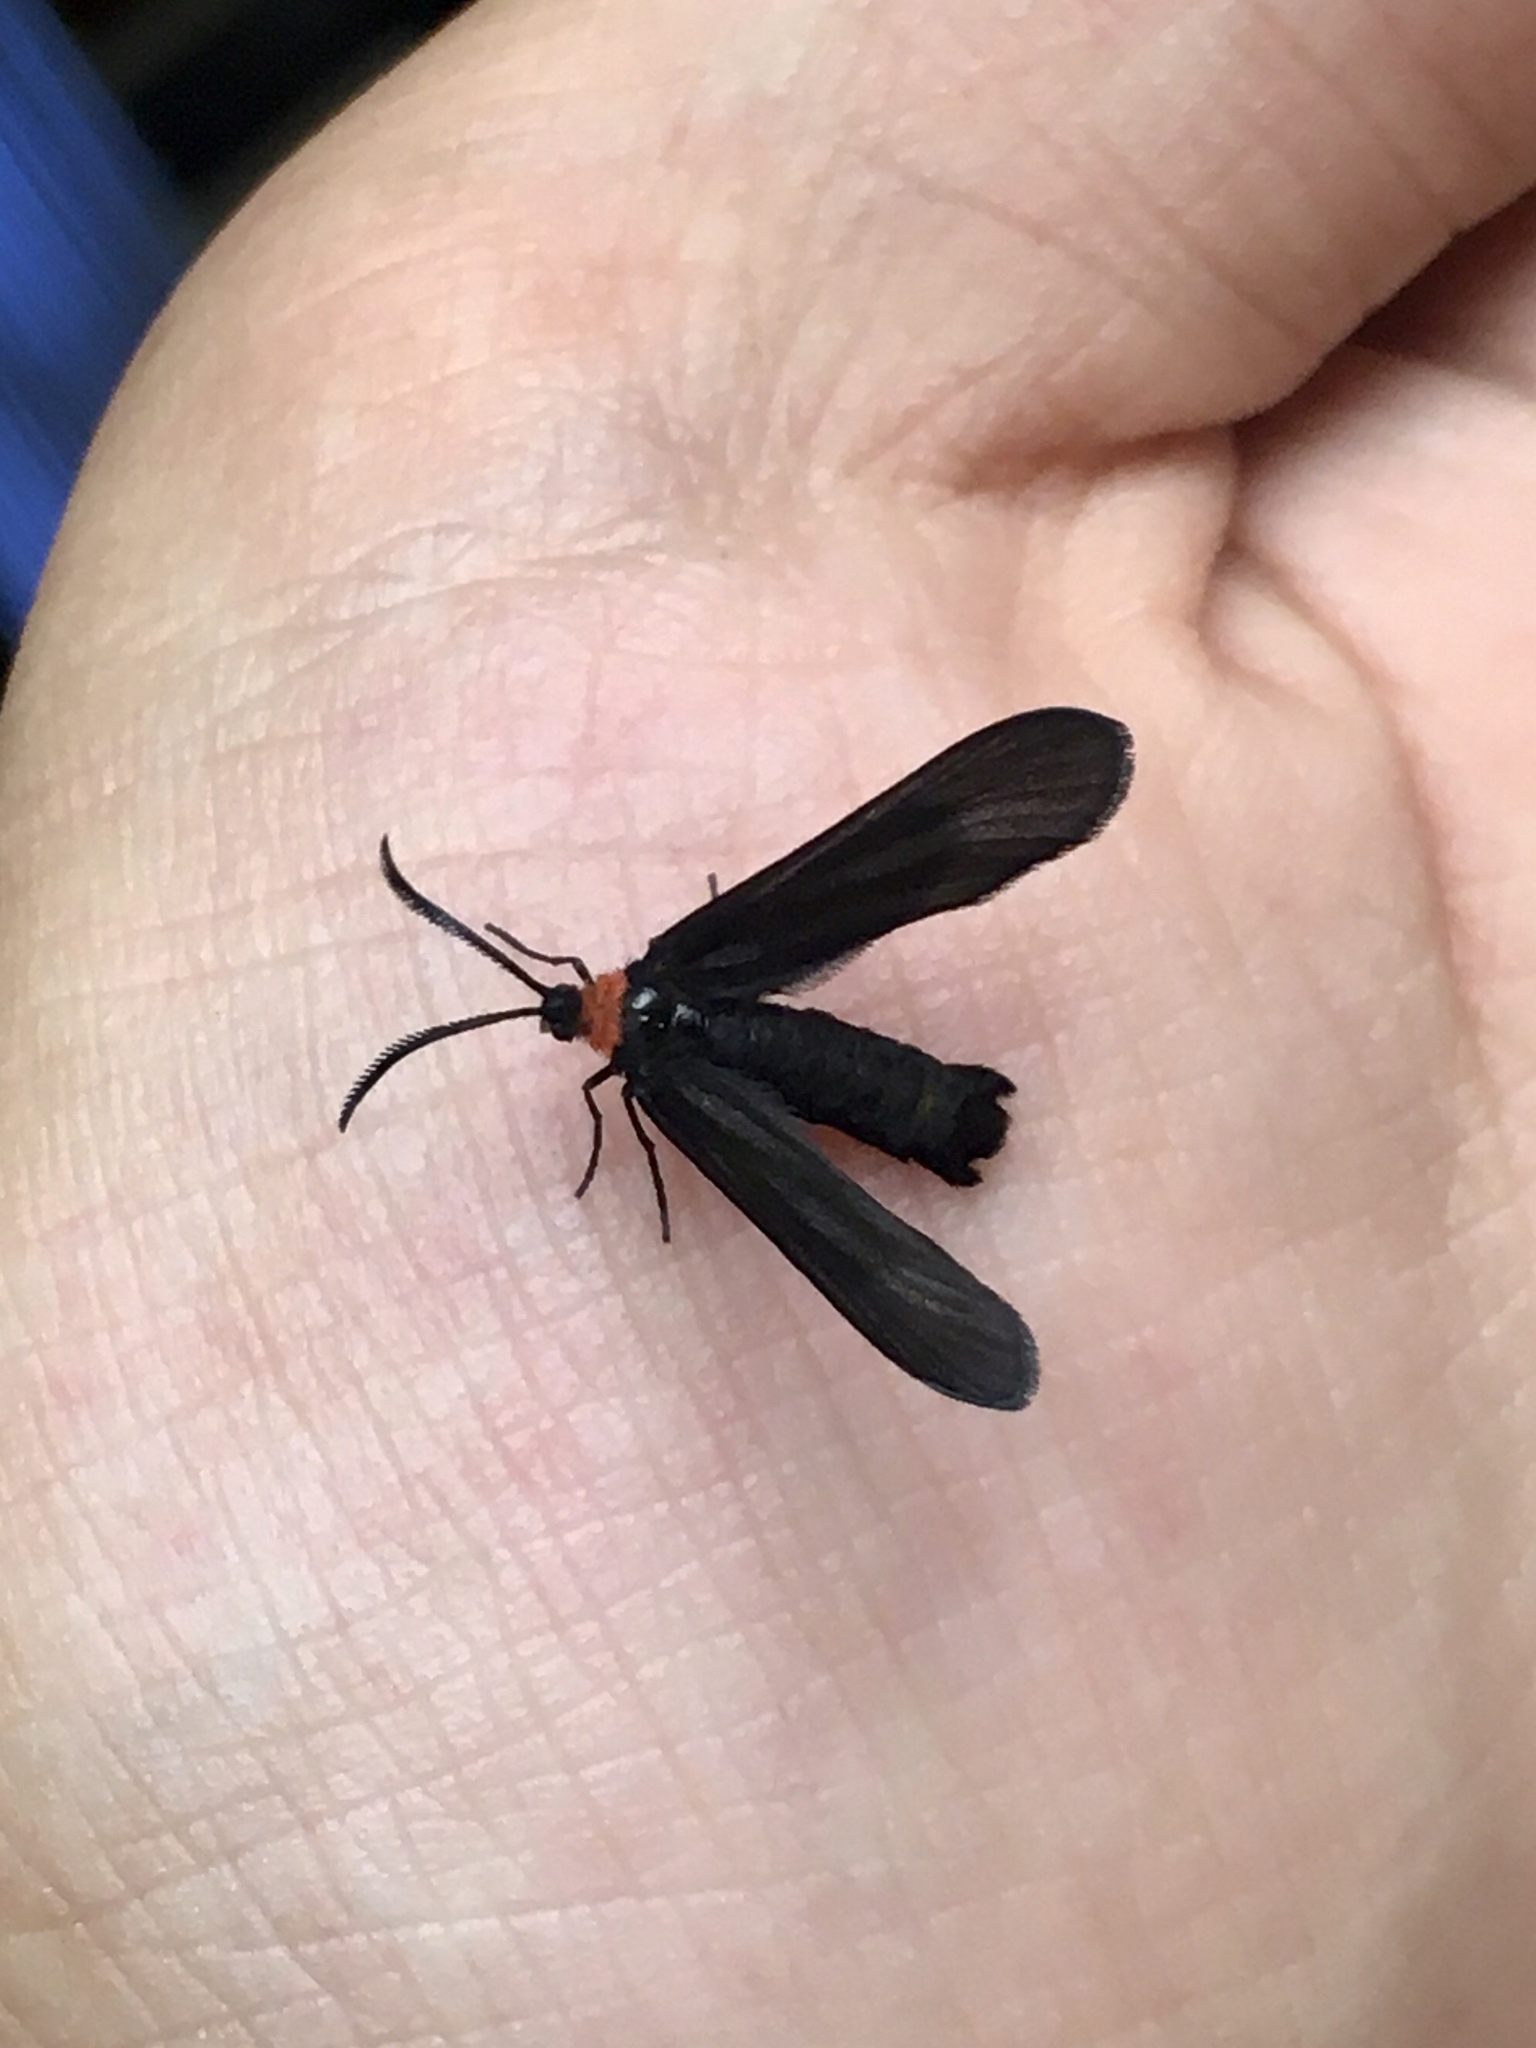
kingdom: Animalia
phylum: Arthropoda
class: Insecta
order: Lepidoptera
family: Zygaenidae
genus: Harrisina
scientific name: Harrisina americana
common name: Grapeleaf skeletonizer moth
